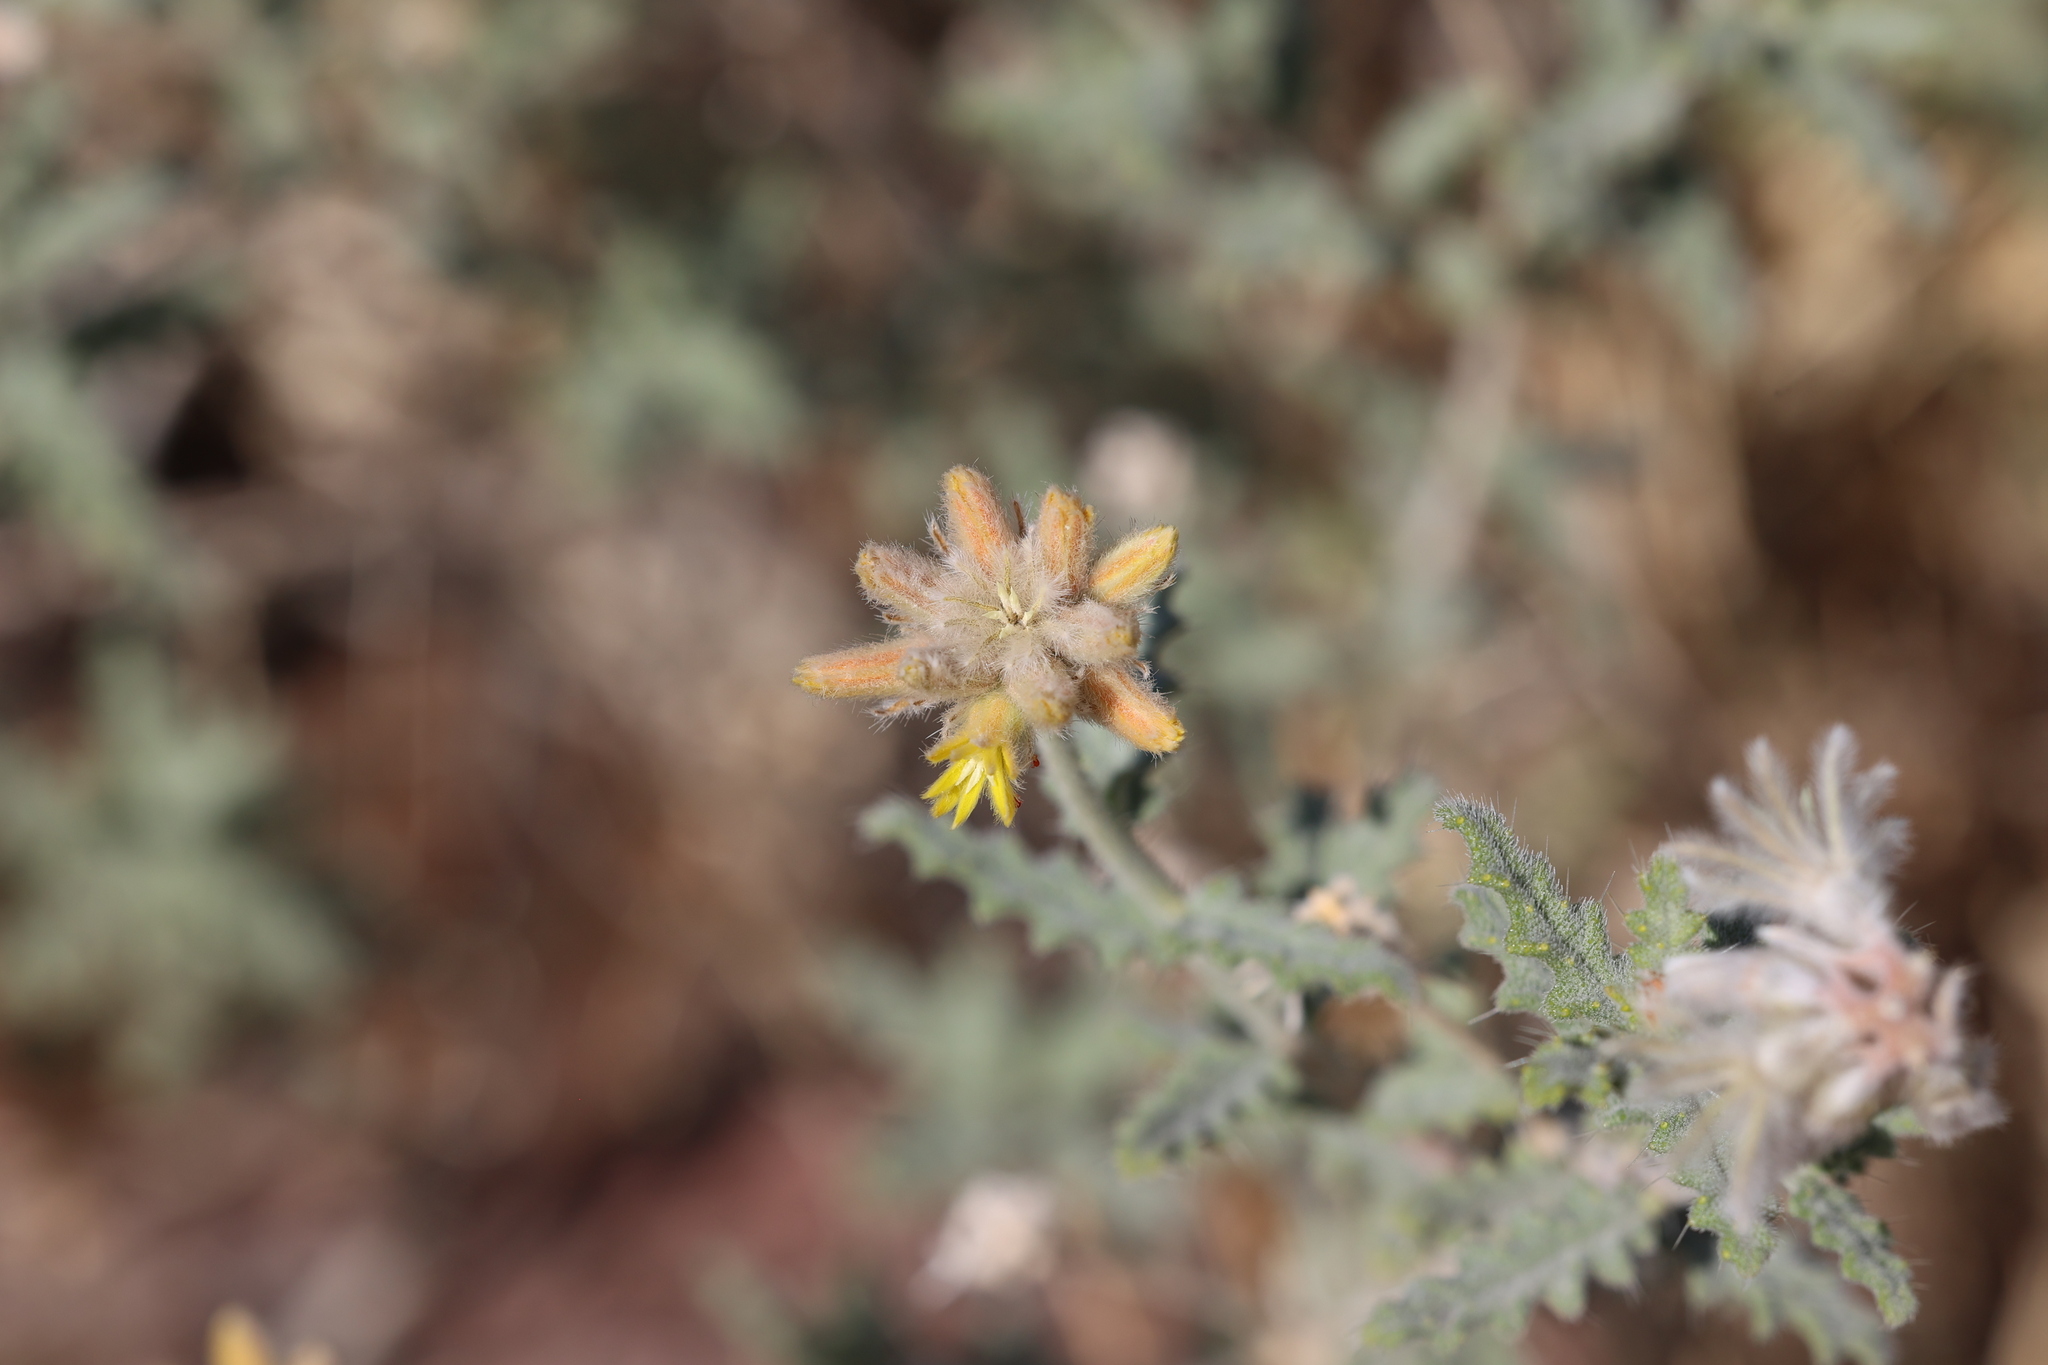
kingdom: Plantae
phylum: Tracheophyta
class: Magnoliopsida
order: Cornales
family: Loasaceae
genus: Cevallia
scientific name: Cevallia sinuata
